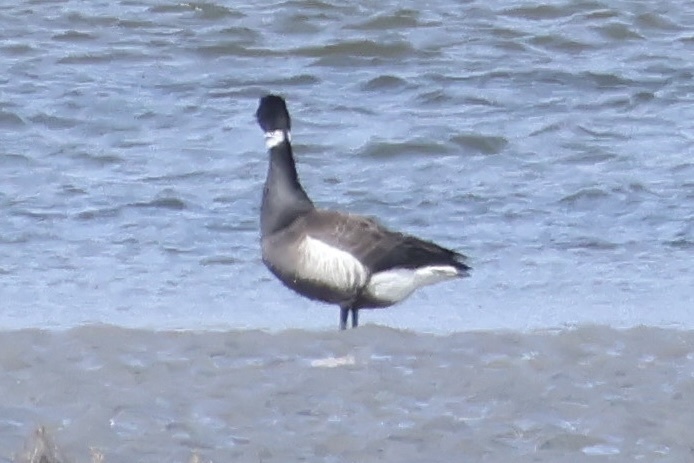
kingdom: Animalia
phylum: Chordata
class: Aves
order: Anseriformes
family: Anatidae
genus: Branta
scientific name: Branta bernicla
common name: Brant goose
